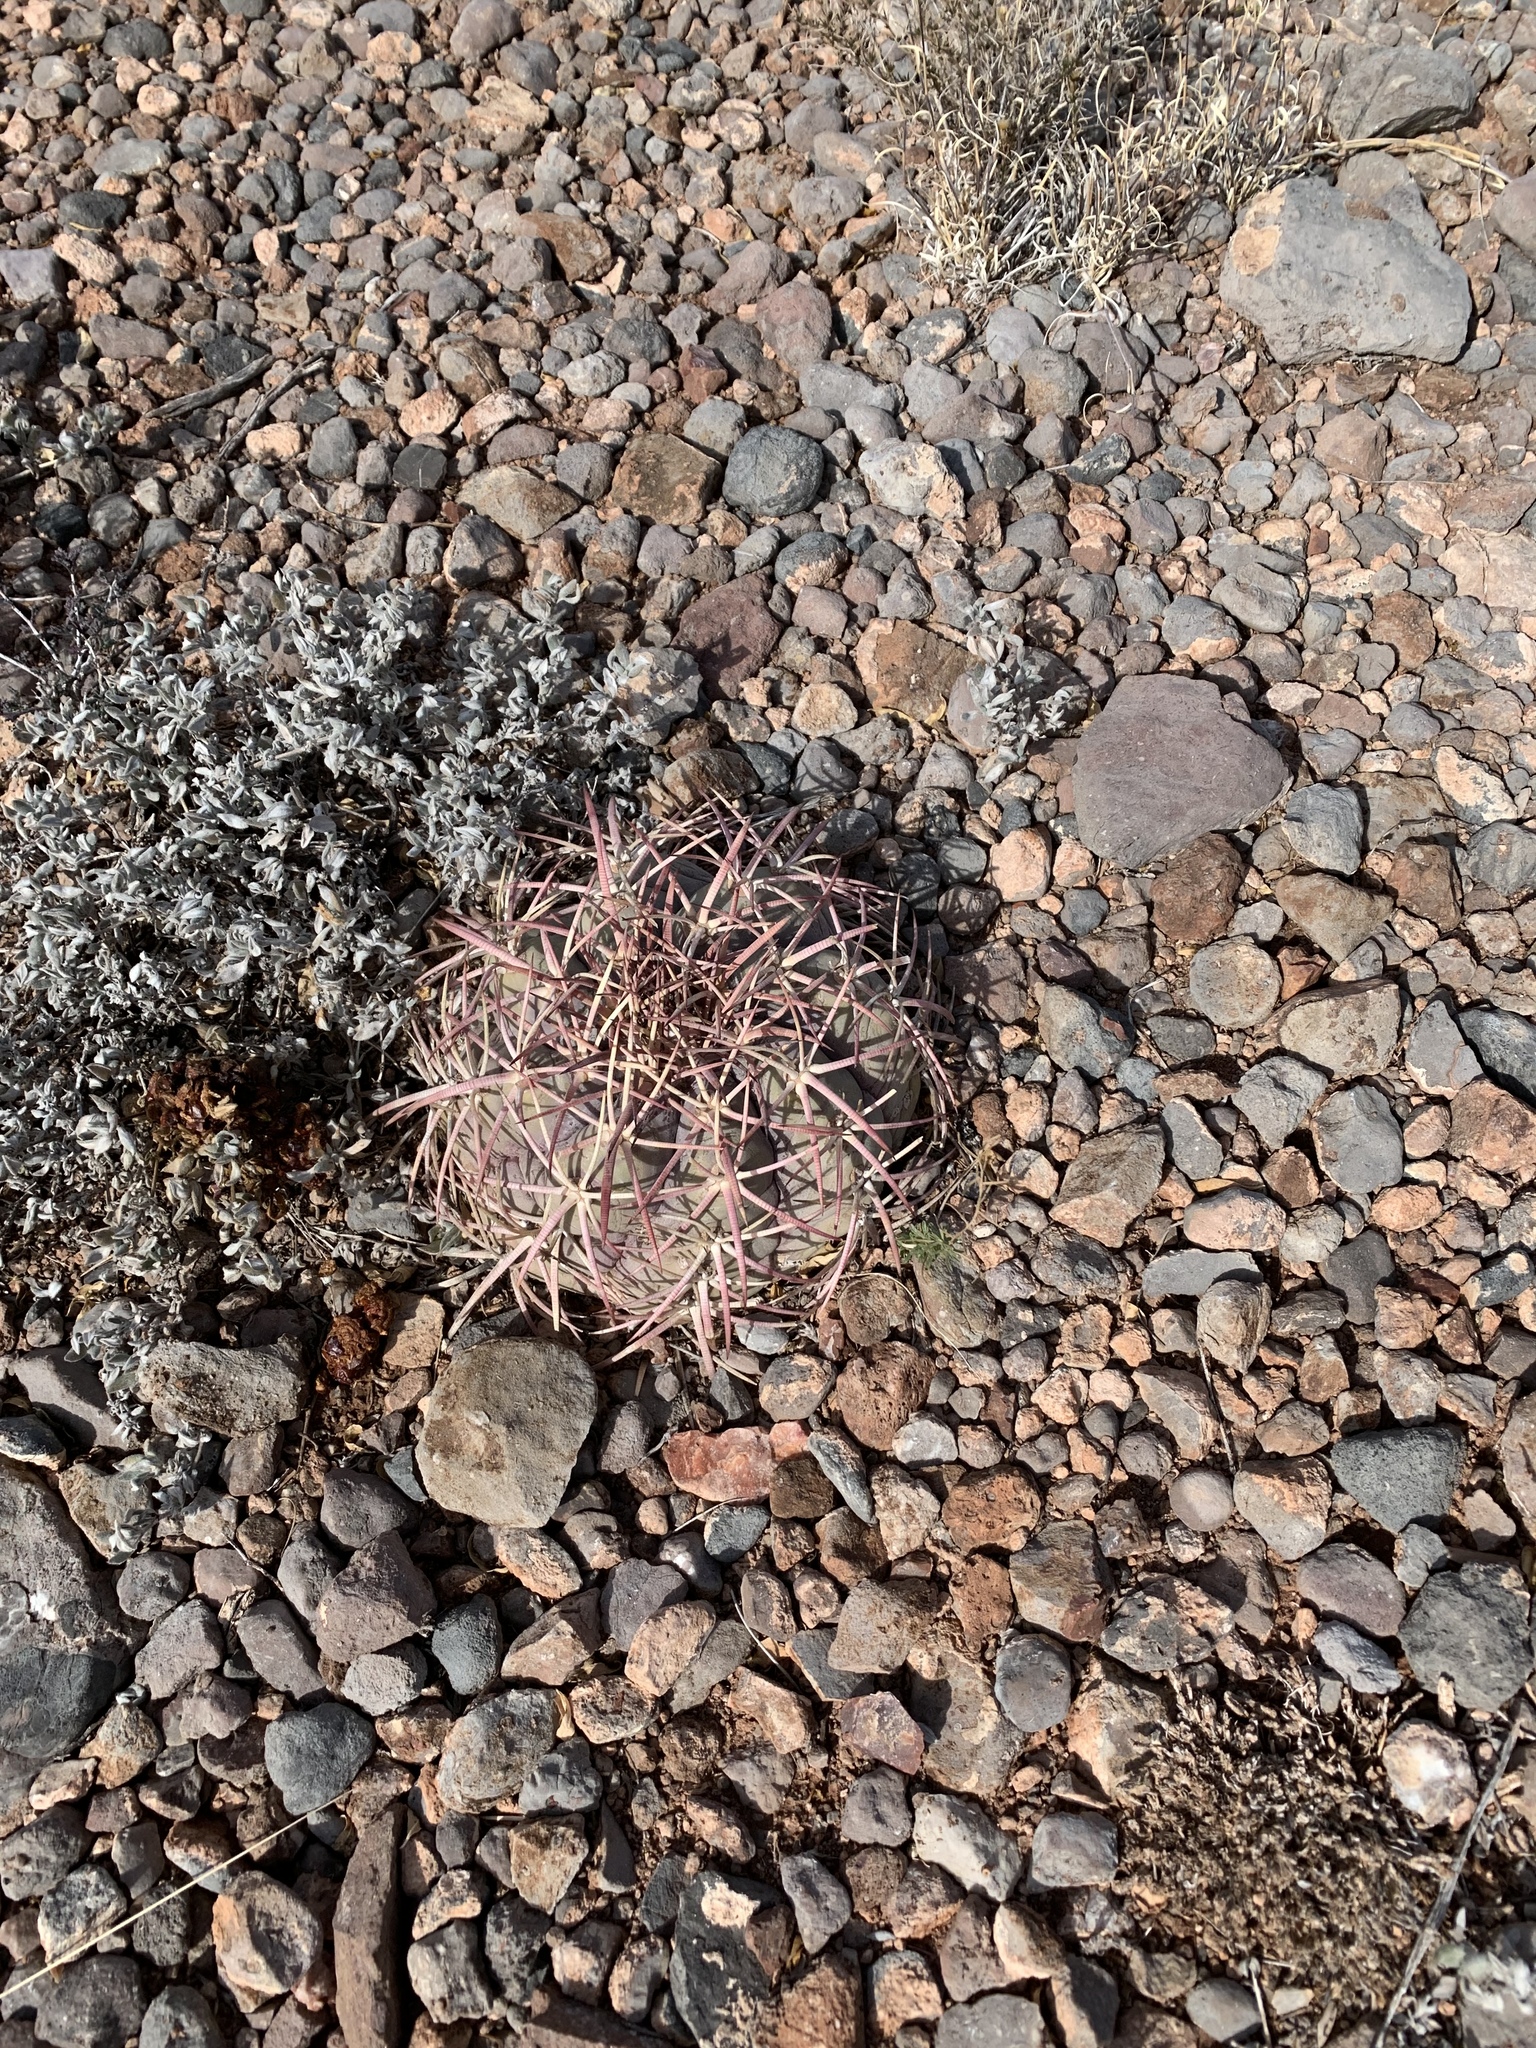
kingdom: Plantae
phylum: Tracheophyta
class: Magnoliopsida
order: Caryophyllales
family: Cactaceae
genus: Echinocactus
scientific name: Echinocactus horizonthalonius
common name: Devilshead
